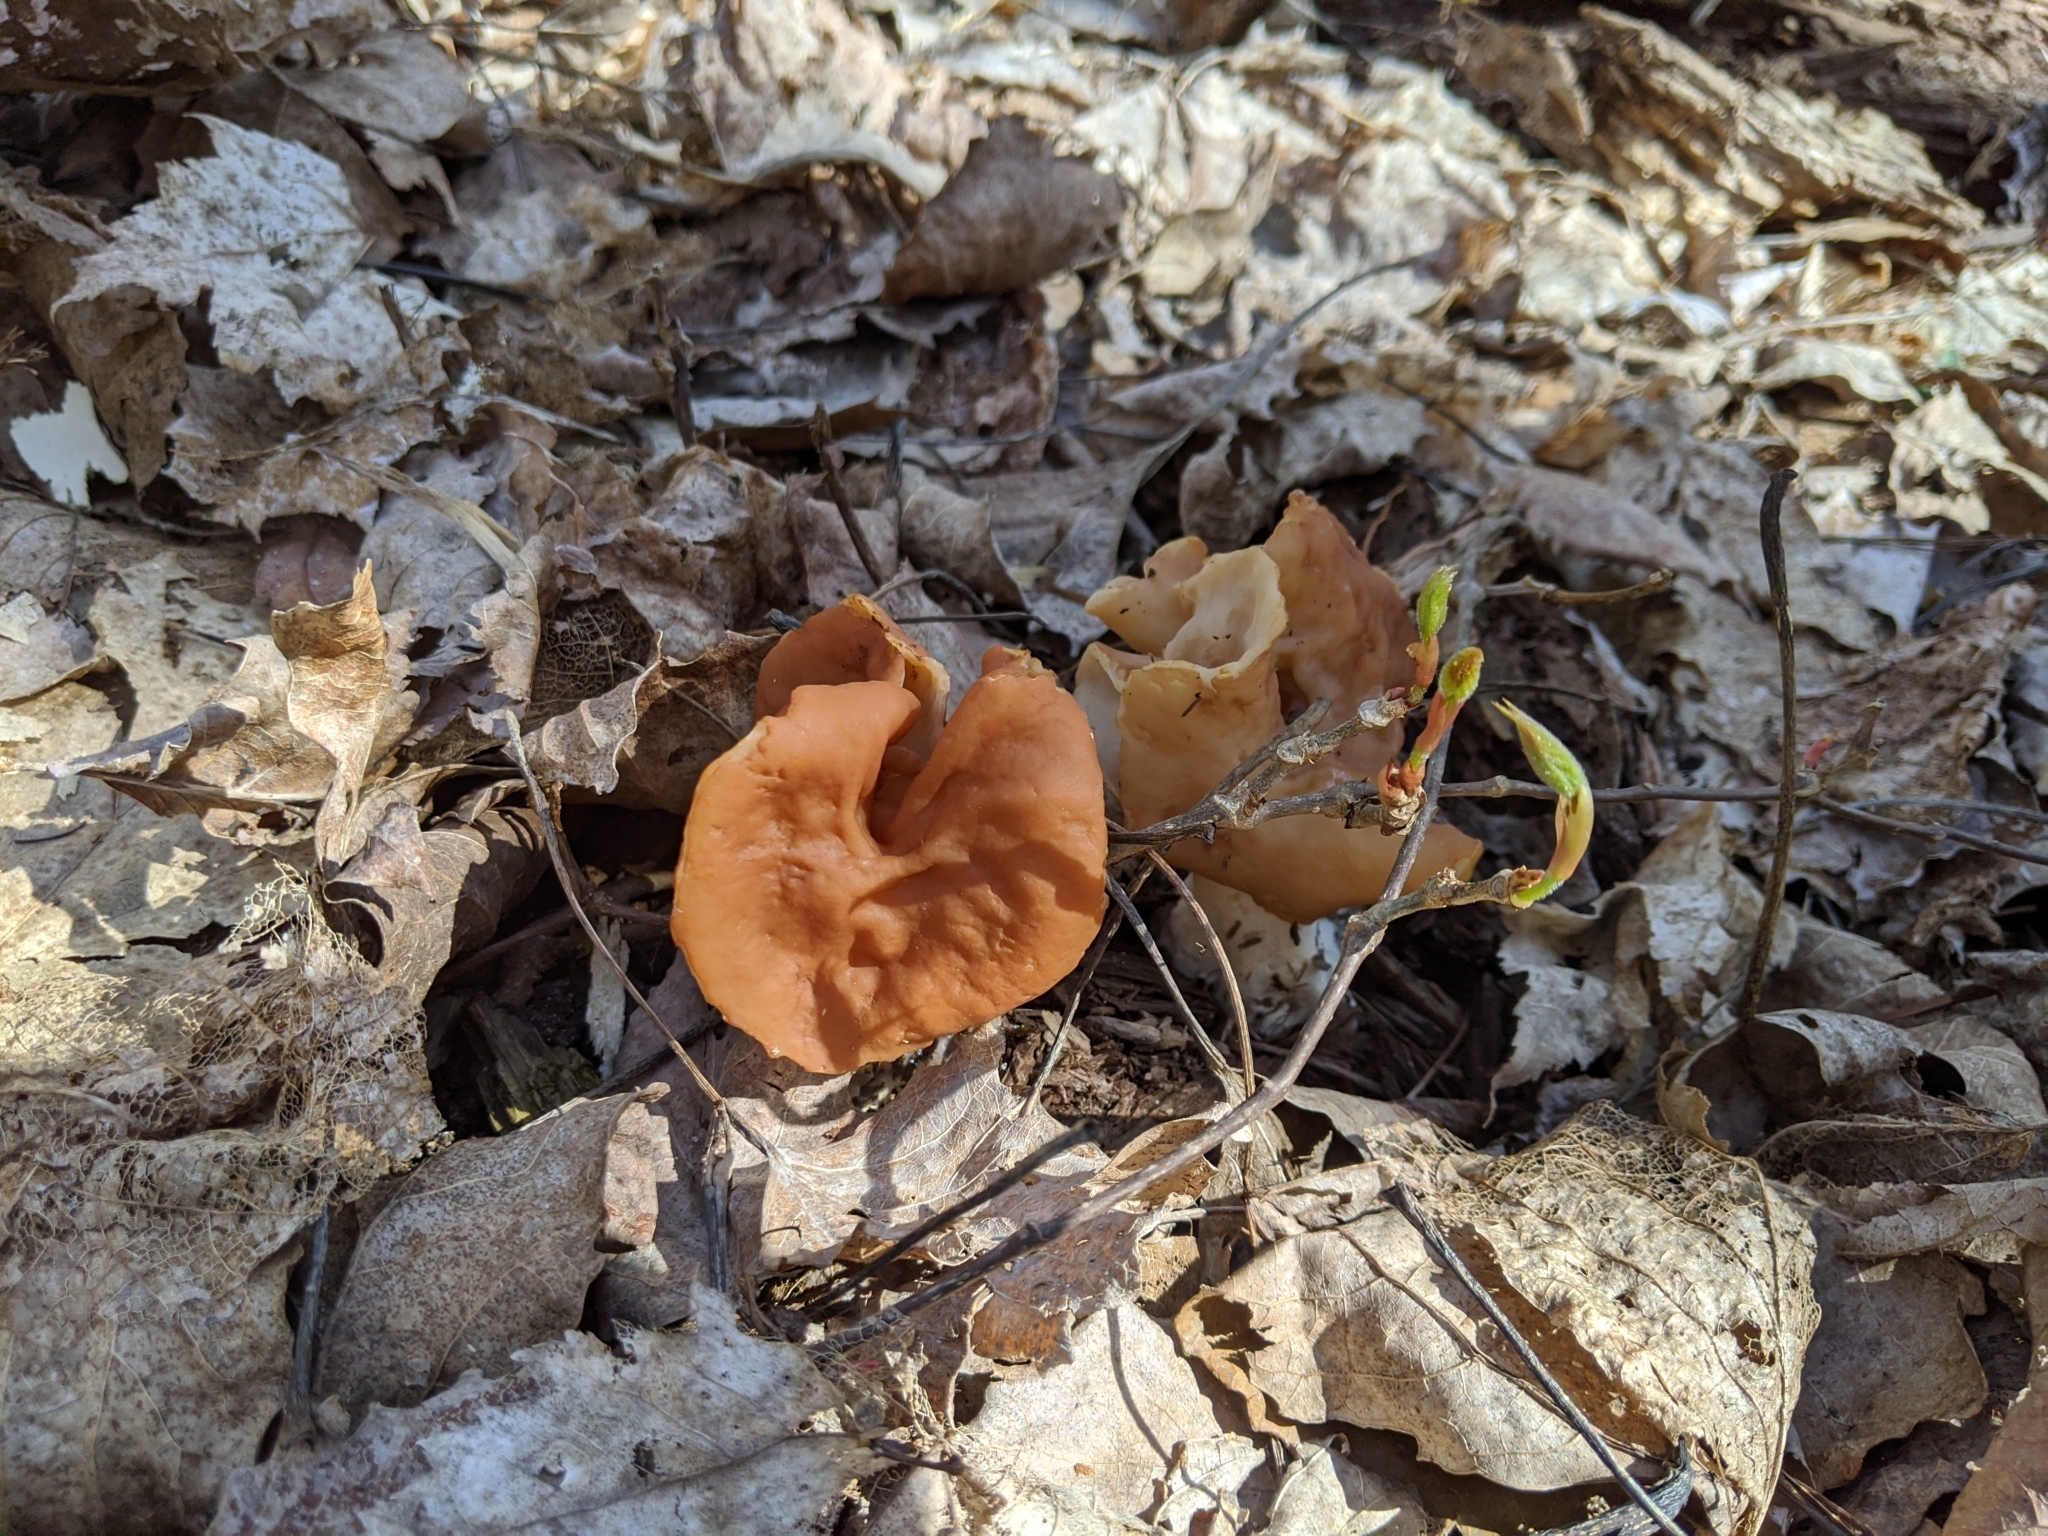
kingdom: Fungi
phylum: Ascomycota
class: Pezizomycetes
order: Pezizales
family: Discinaceae
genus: Discina
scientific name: Discina brunnea
